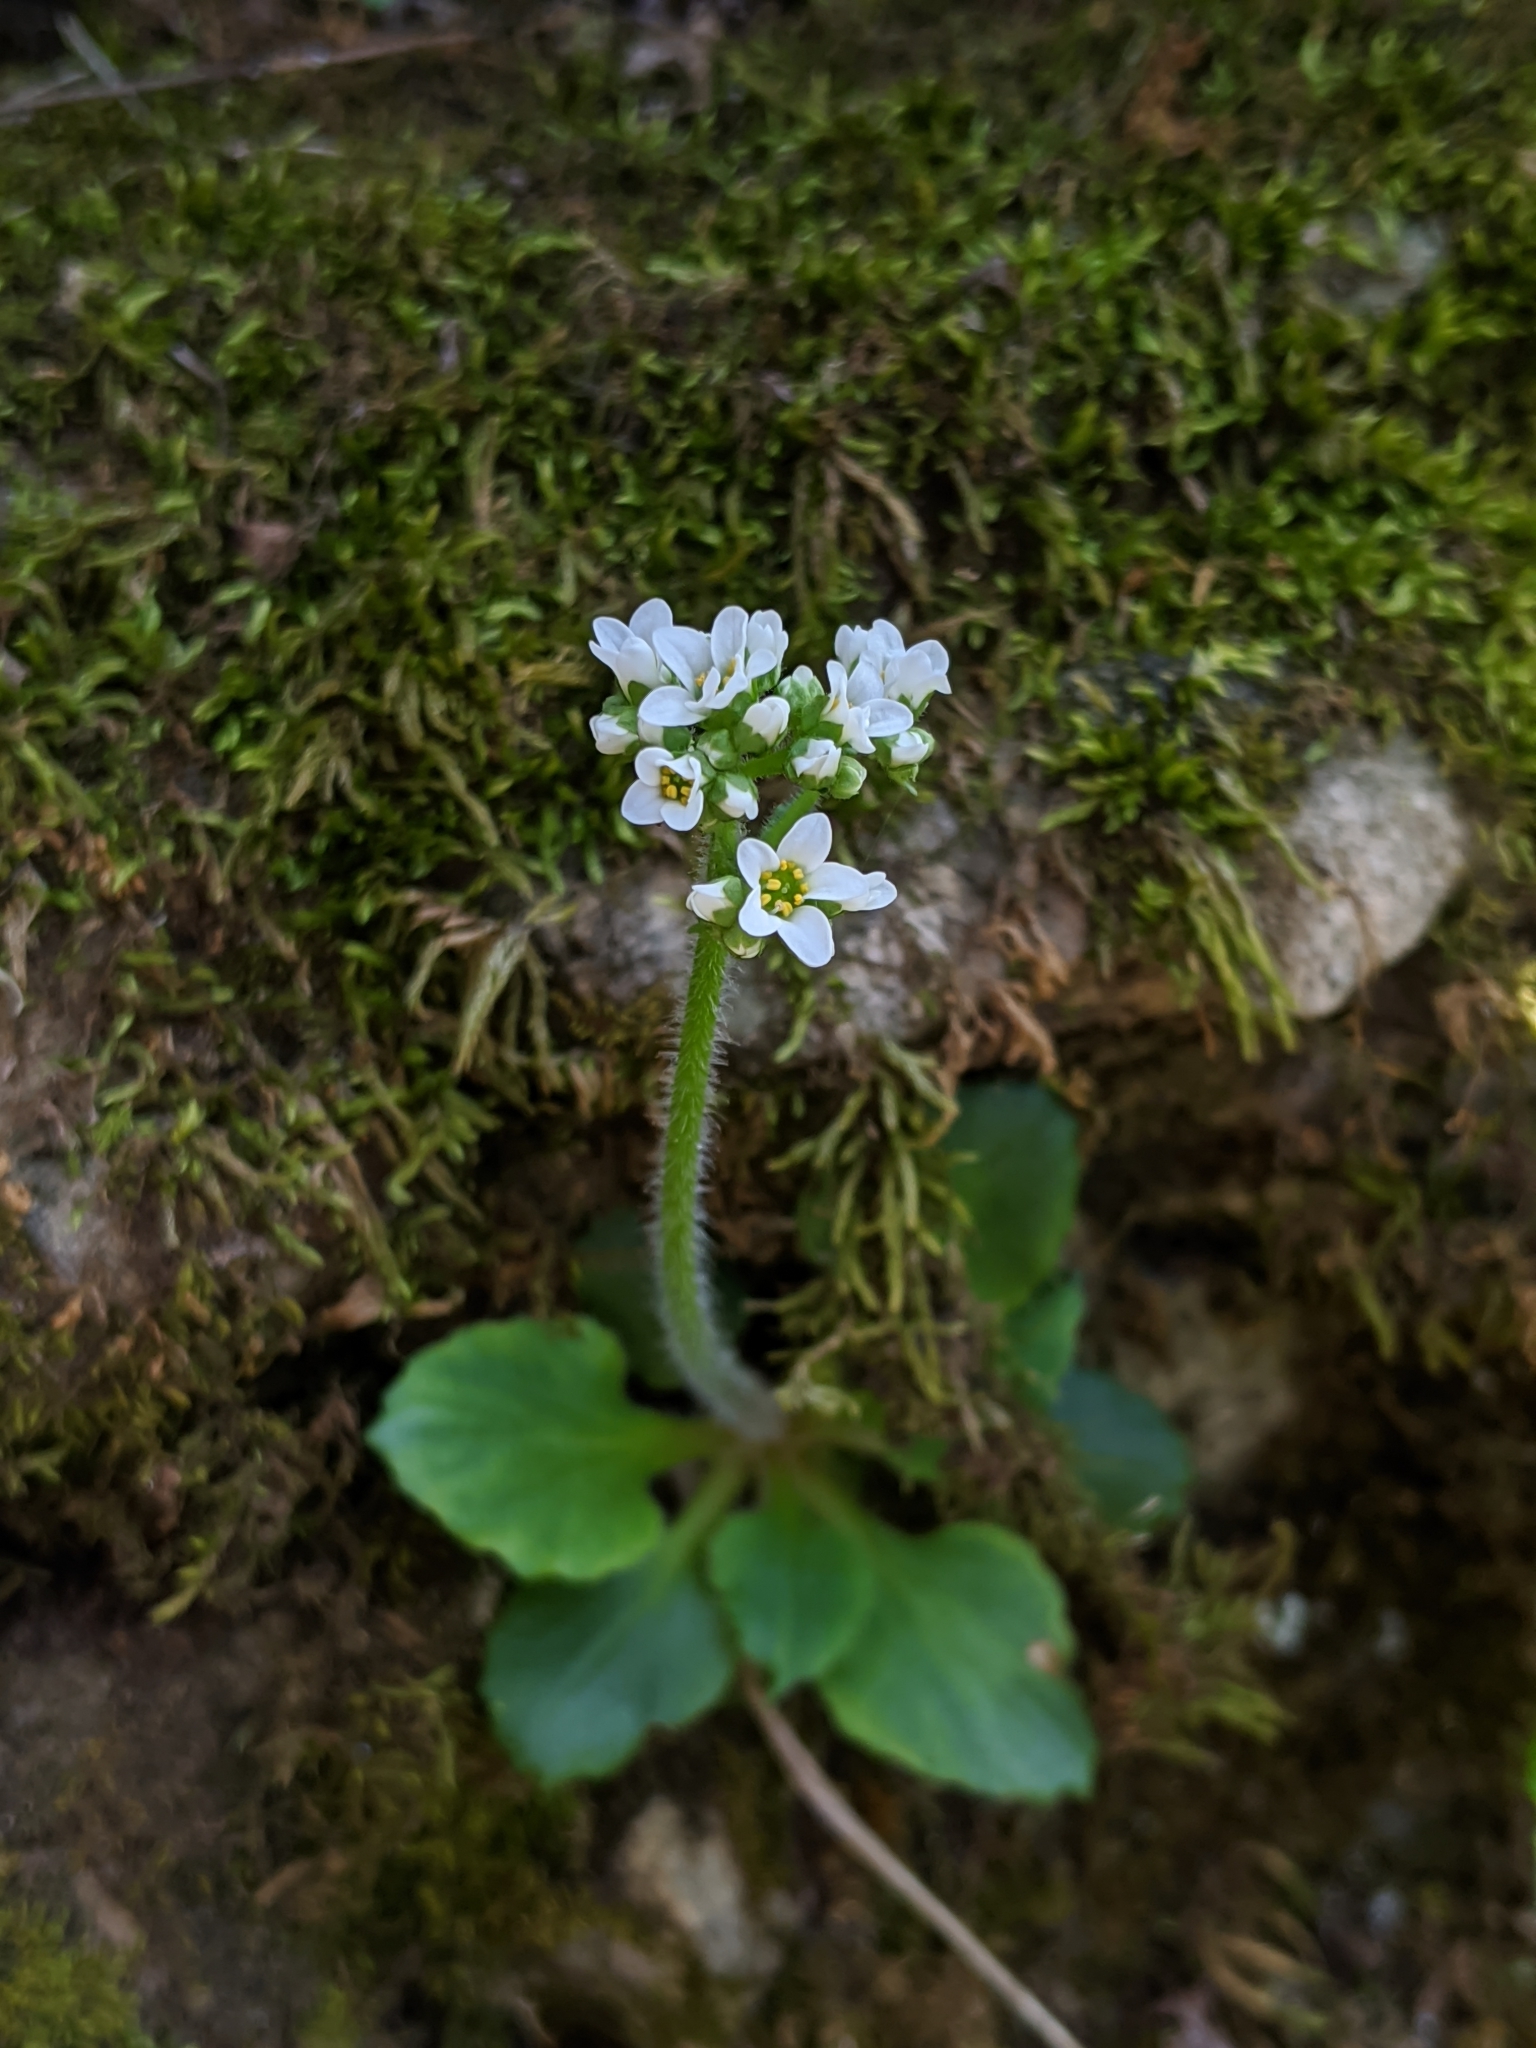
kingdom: Plantae
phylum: Tracheophyta
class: Magnoliopsida
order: Saxifragales
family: Saxifragaceae
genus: Micranthes
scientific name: Micranthes virginiensis
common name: Early saxifrage
